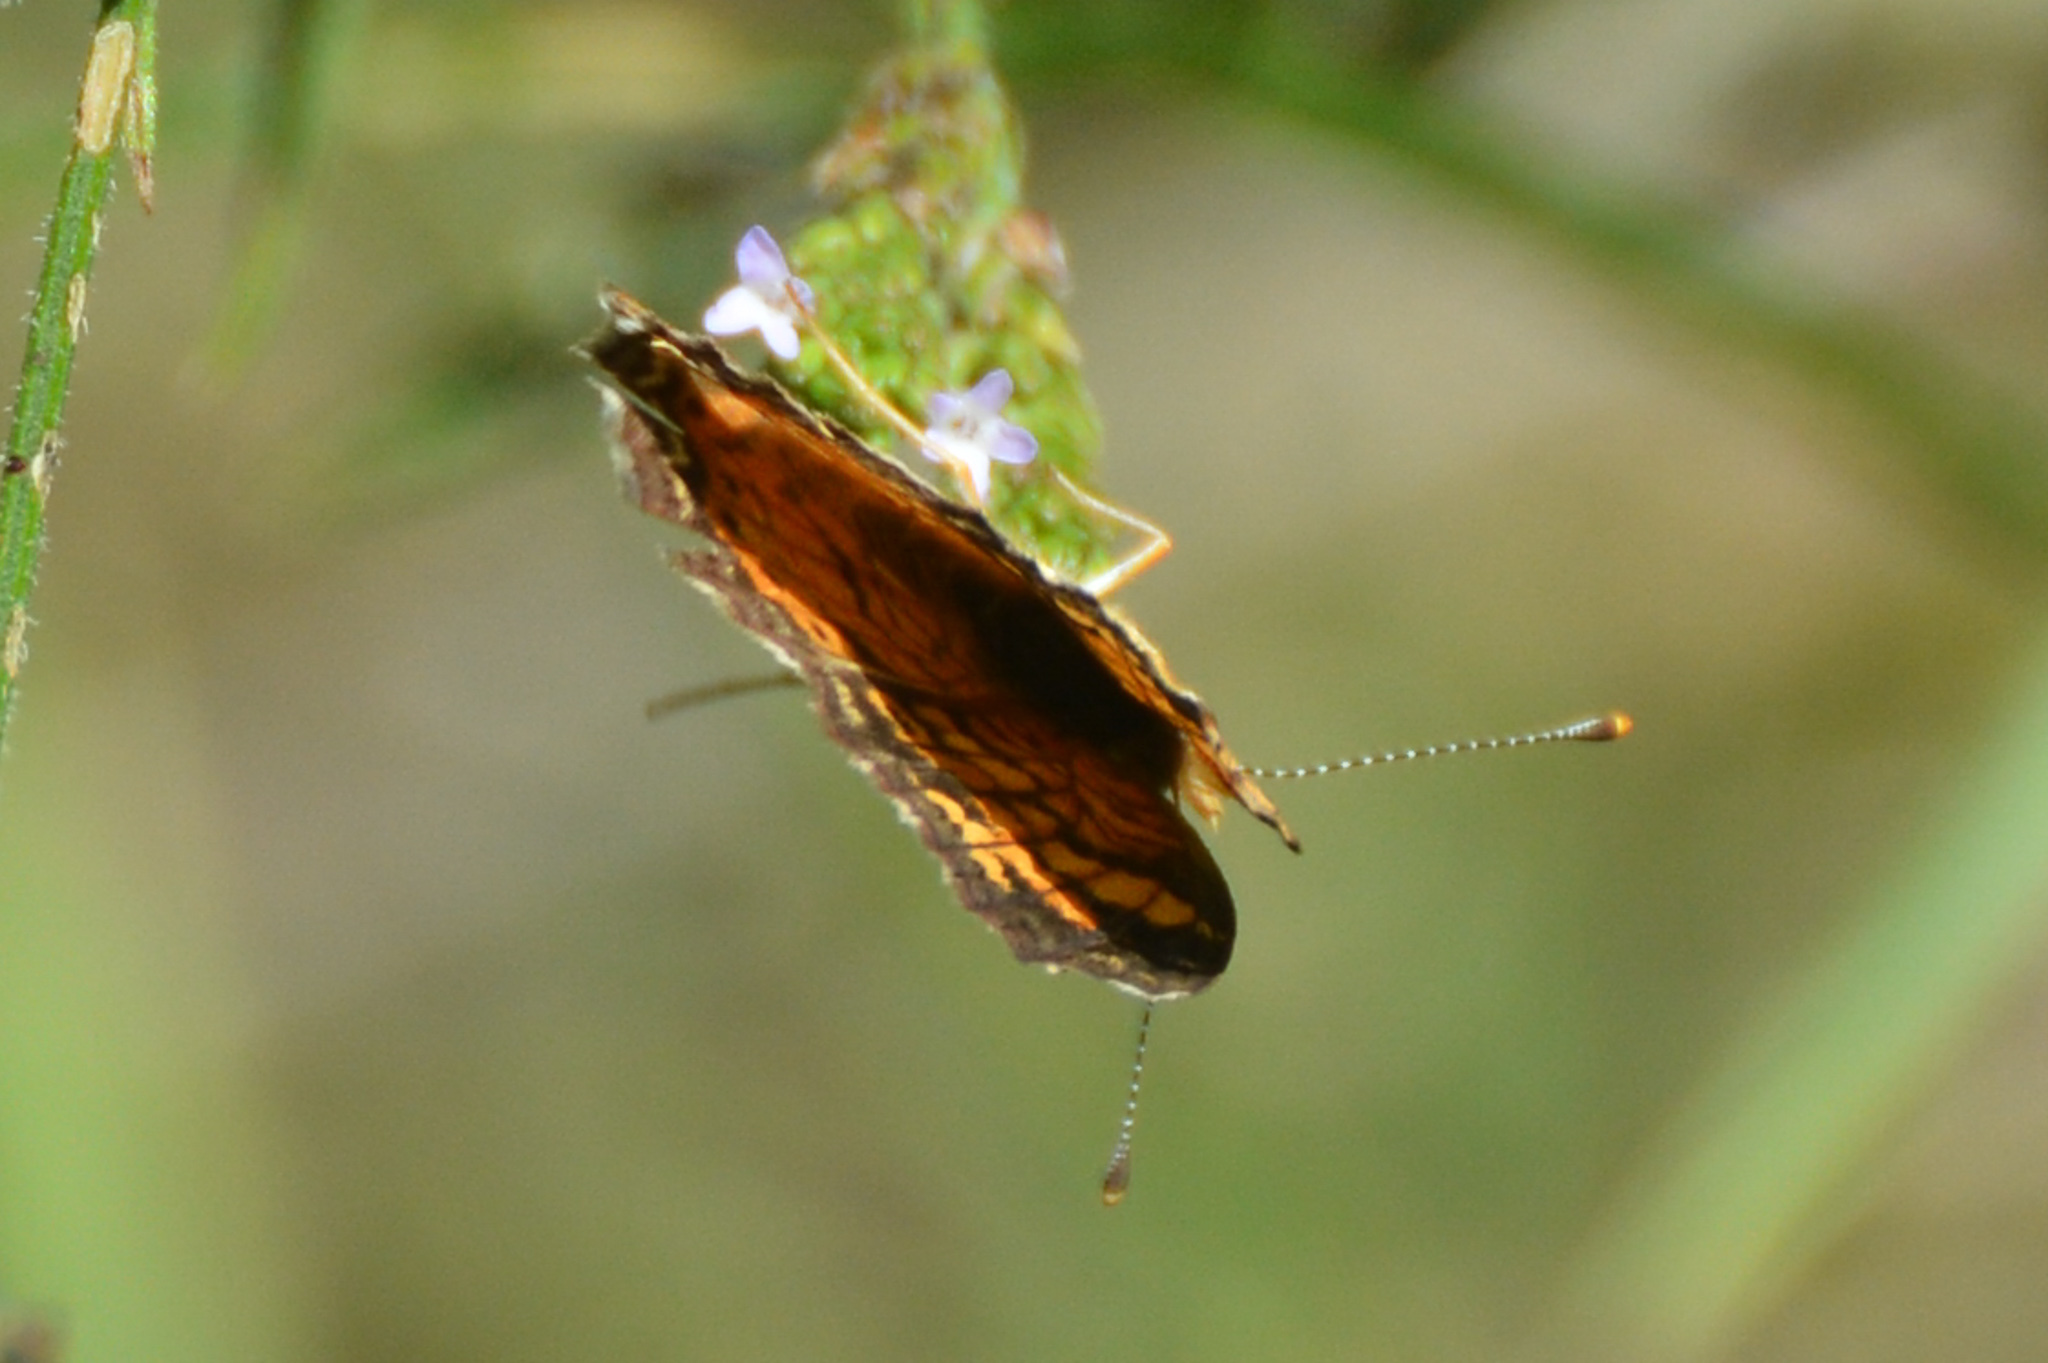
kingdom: Animalia
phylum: Arthropoda
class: Insecta
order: Lepidoptera
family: Nymphalidae
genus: Phyciodes
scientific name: Phyciodes tharos
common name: Pearl crescent
